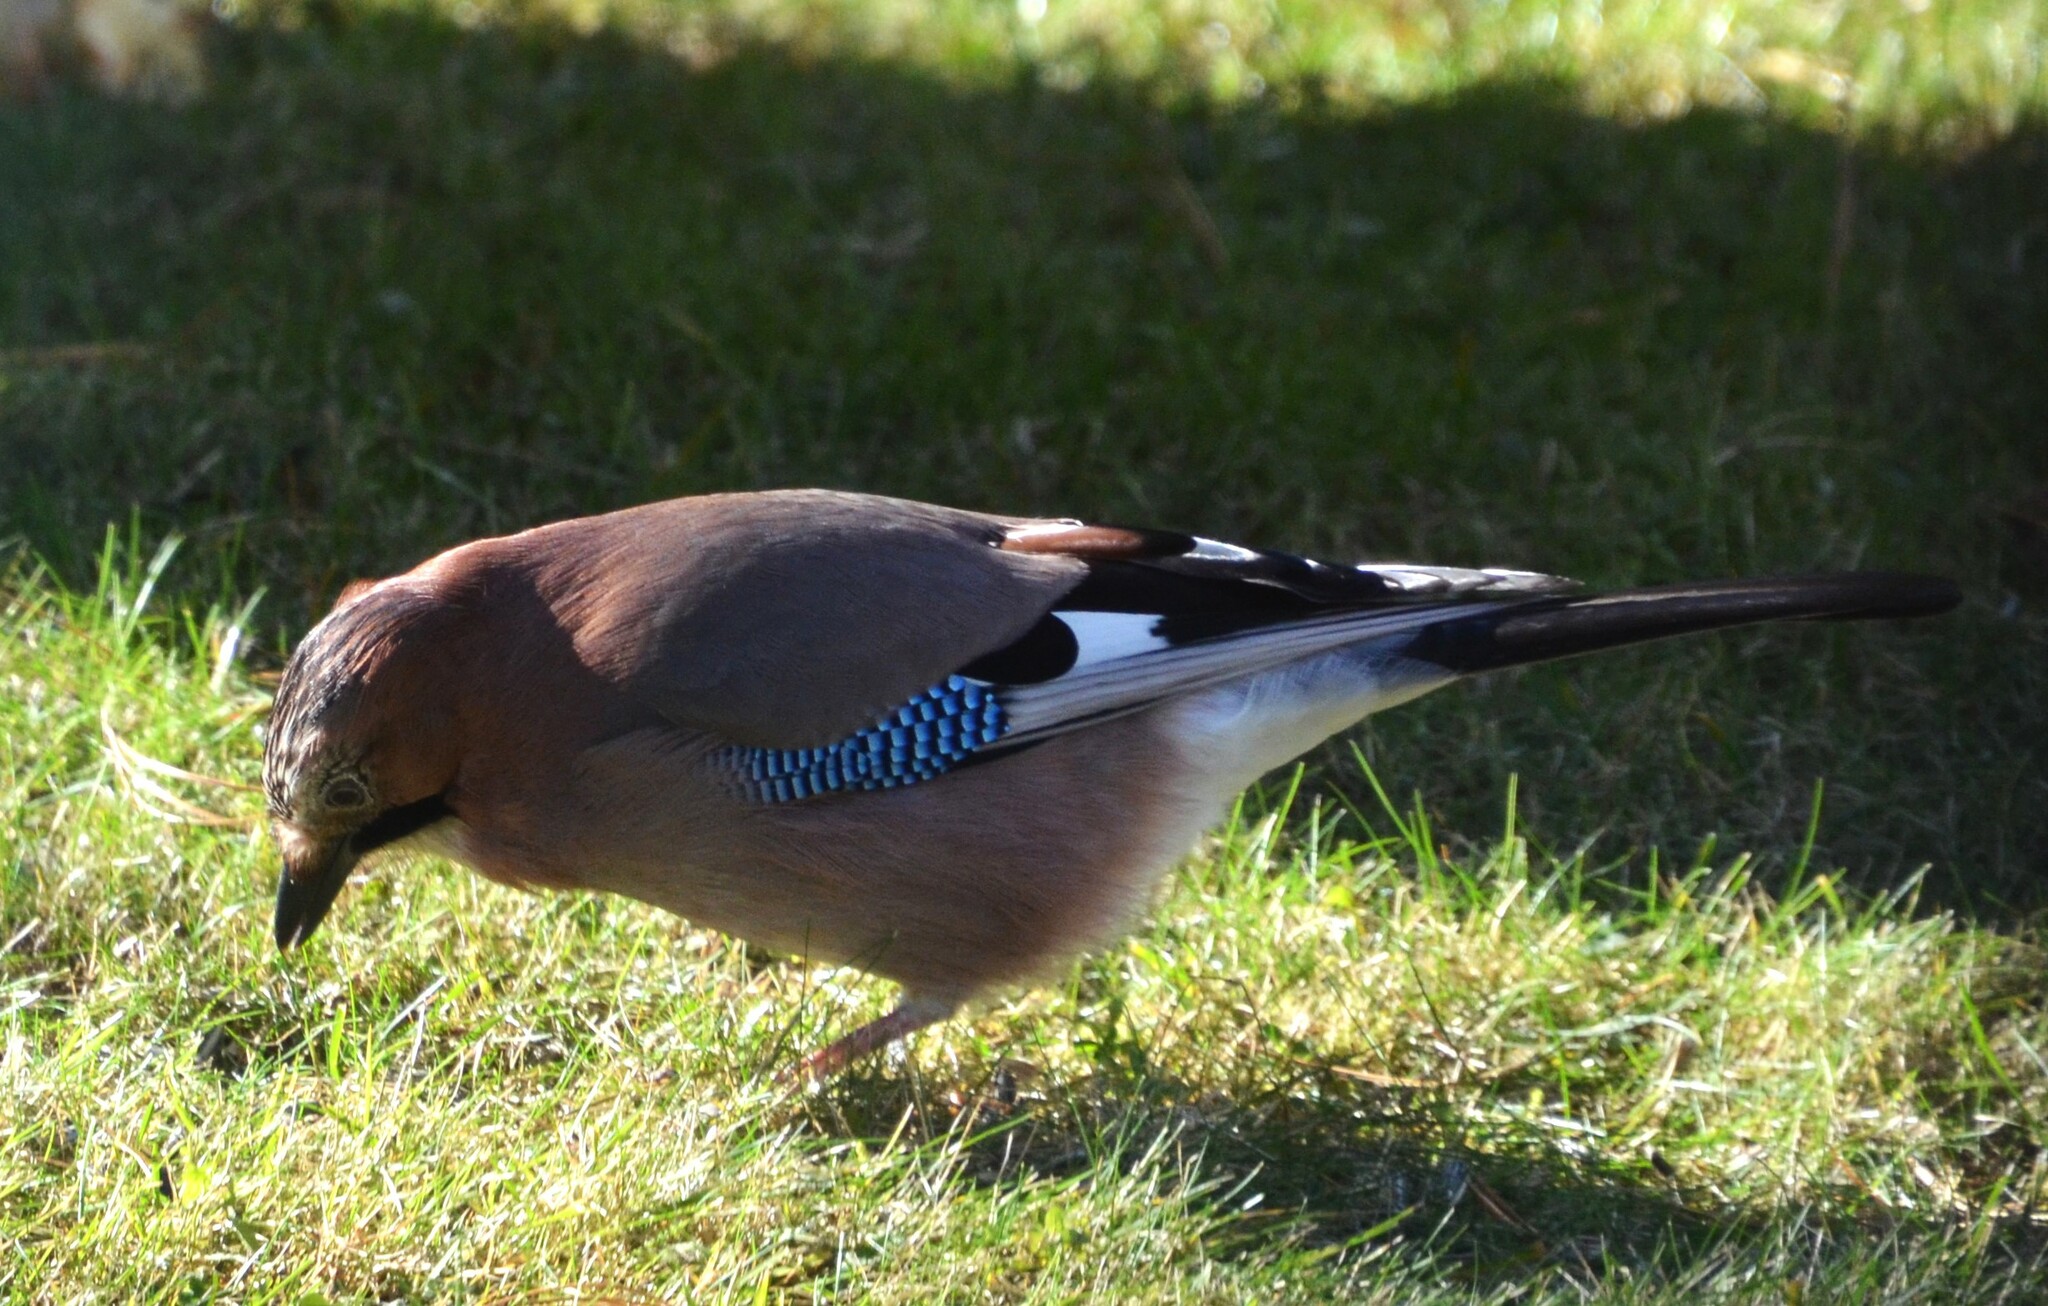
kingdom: Animalia
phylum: Chordata
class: Aves
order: Passeriformes
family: Corvidae
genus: Garrulus
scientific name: Garrulus glandarius
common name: Eurasian jay
